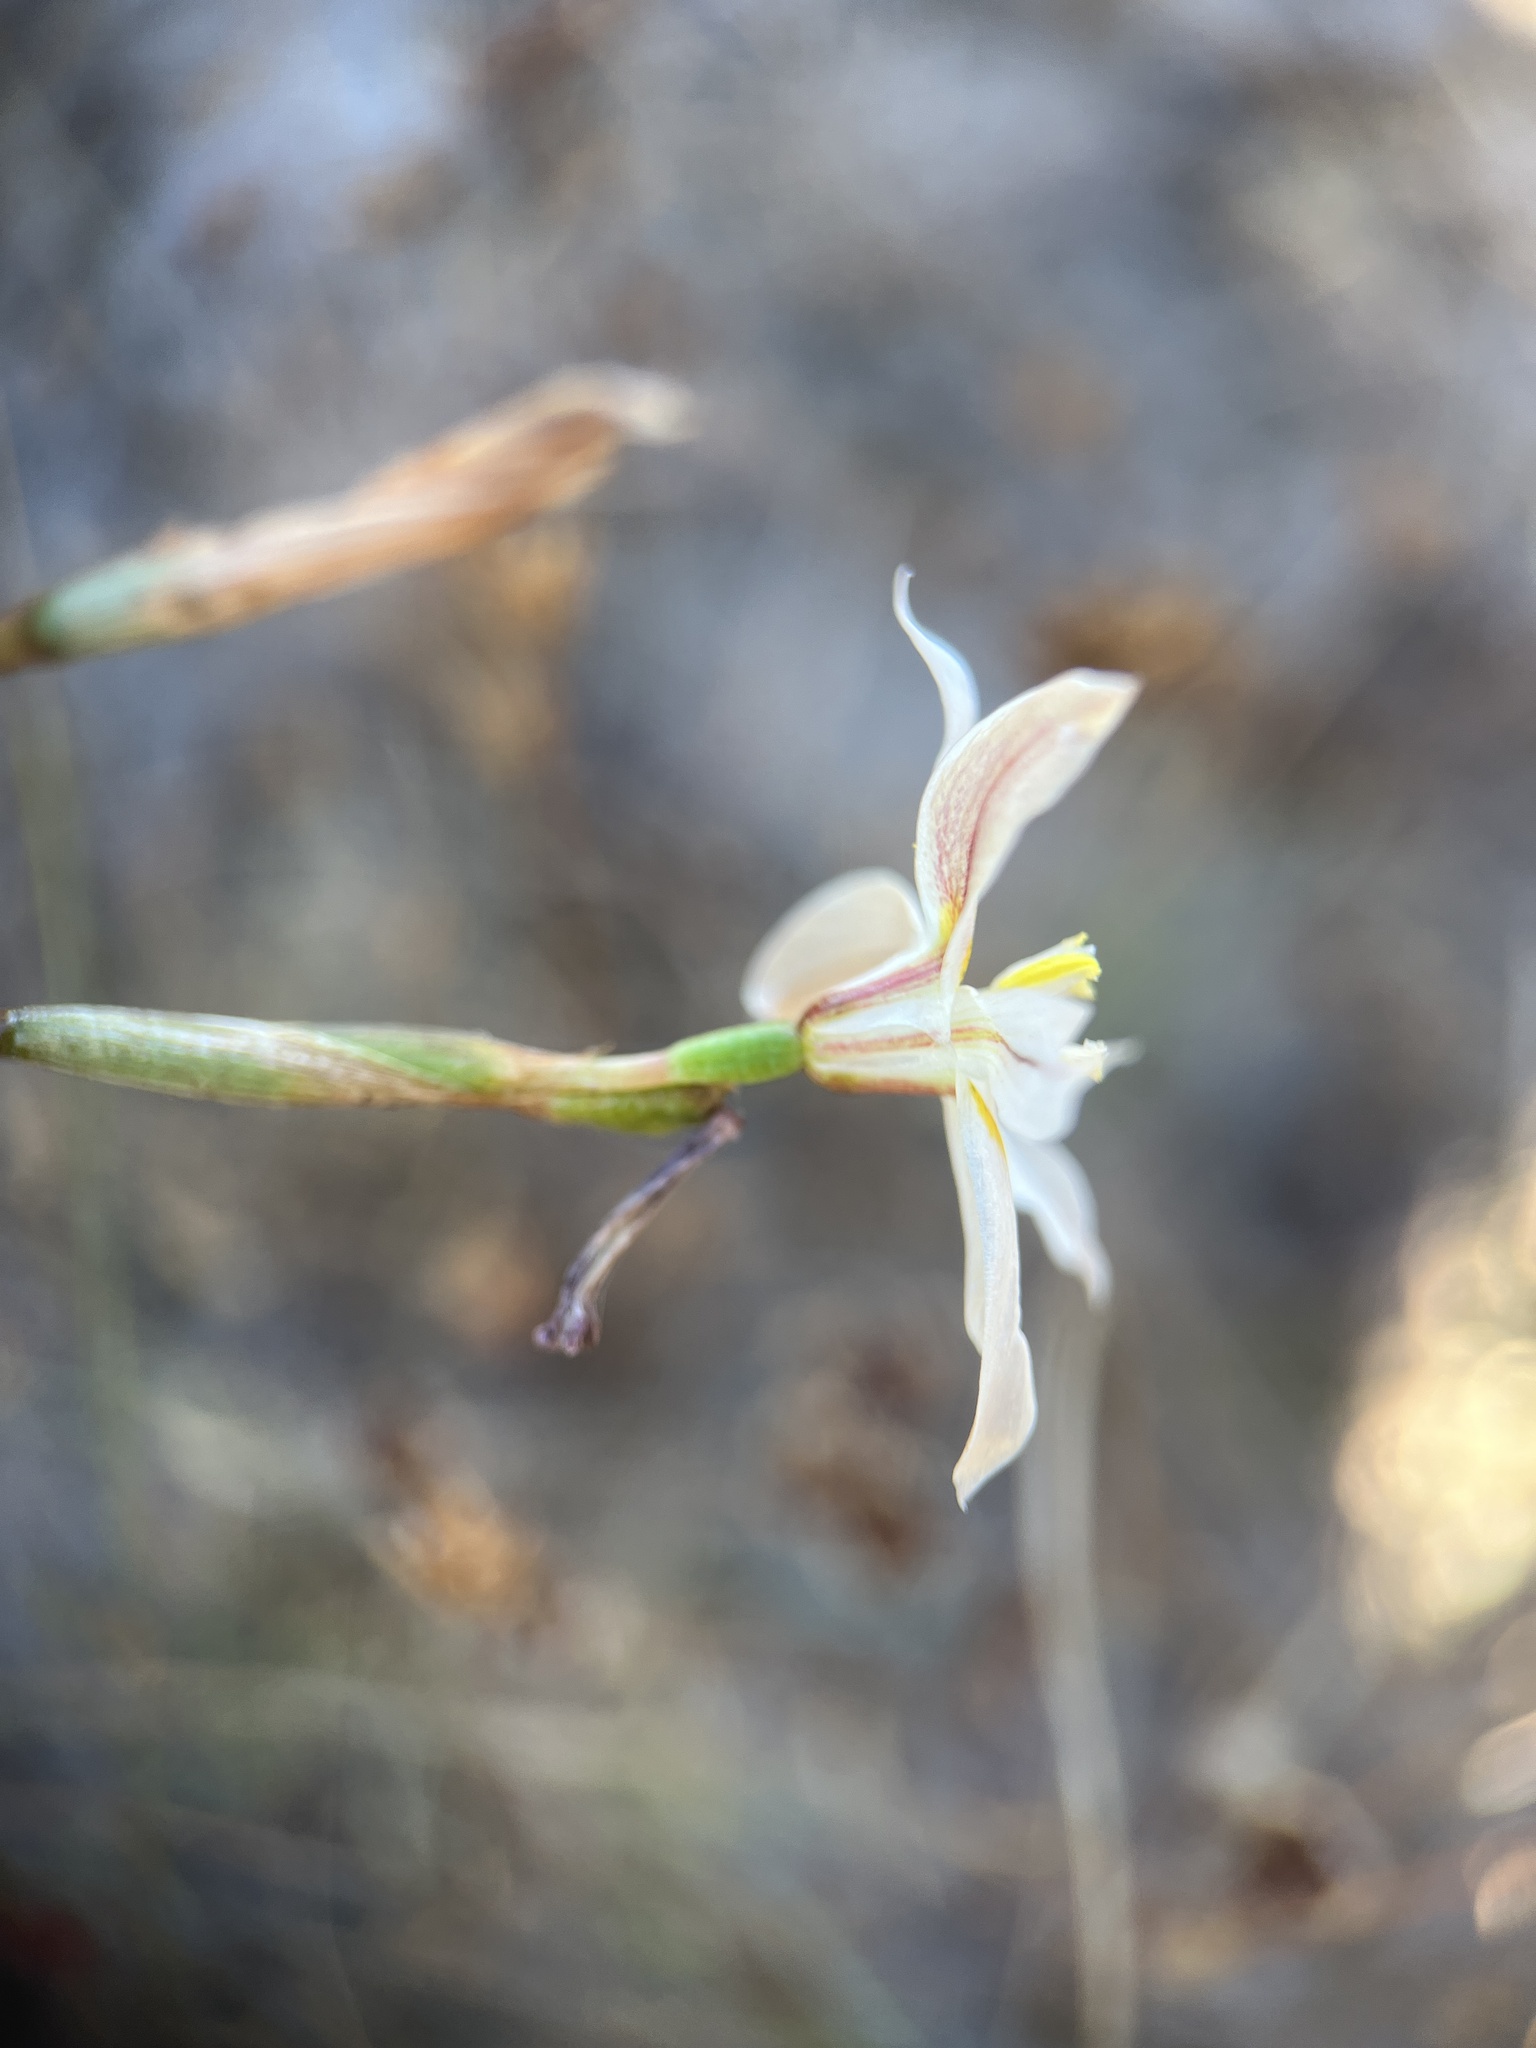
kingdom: Plantae
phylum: Tracheophyta
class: Liliopsida
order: Asparagales
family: Iridaceae
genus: Moraea
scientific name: Moraea elsiae
